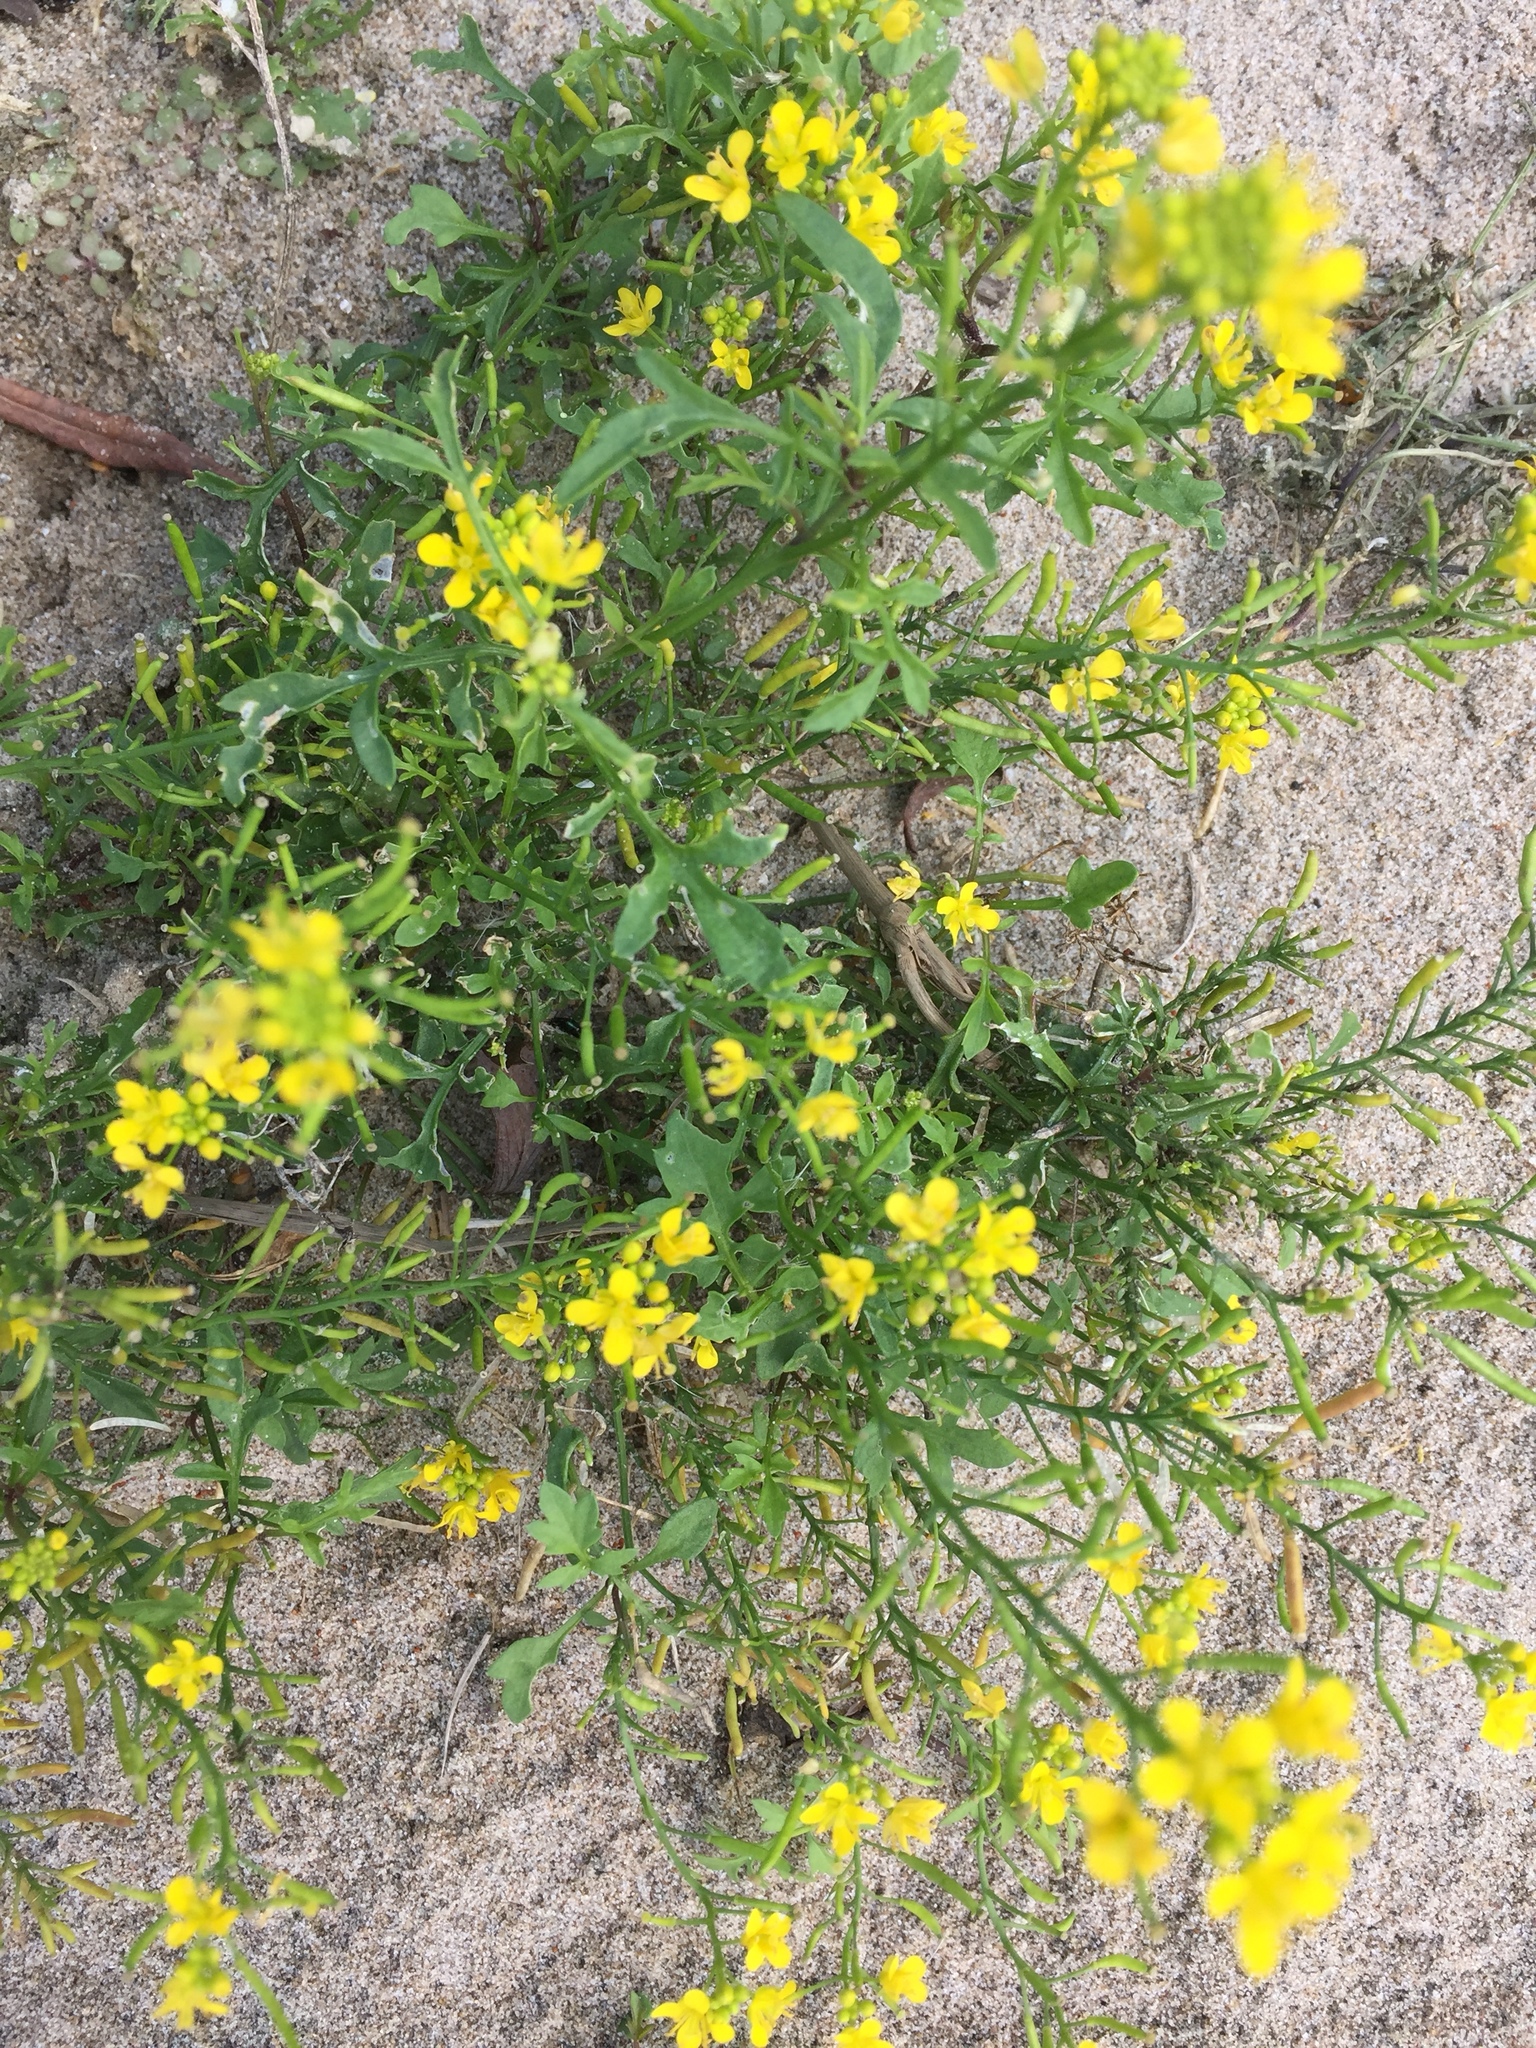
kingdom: Plantae
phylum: Tracheophyta
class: Magnoliopsida
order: Brassicales
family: Brassicaceae
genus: Rorippa
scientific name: Rorippa sylvestris
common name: Creeping yellowcress
